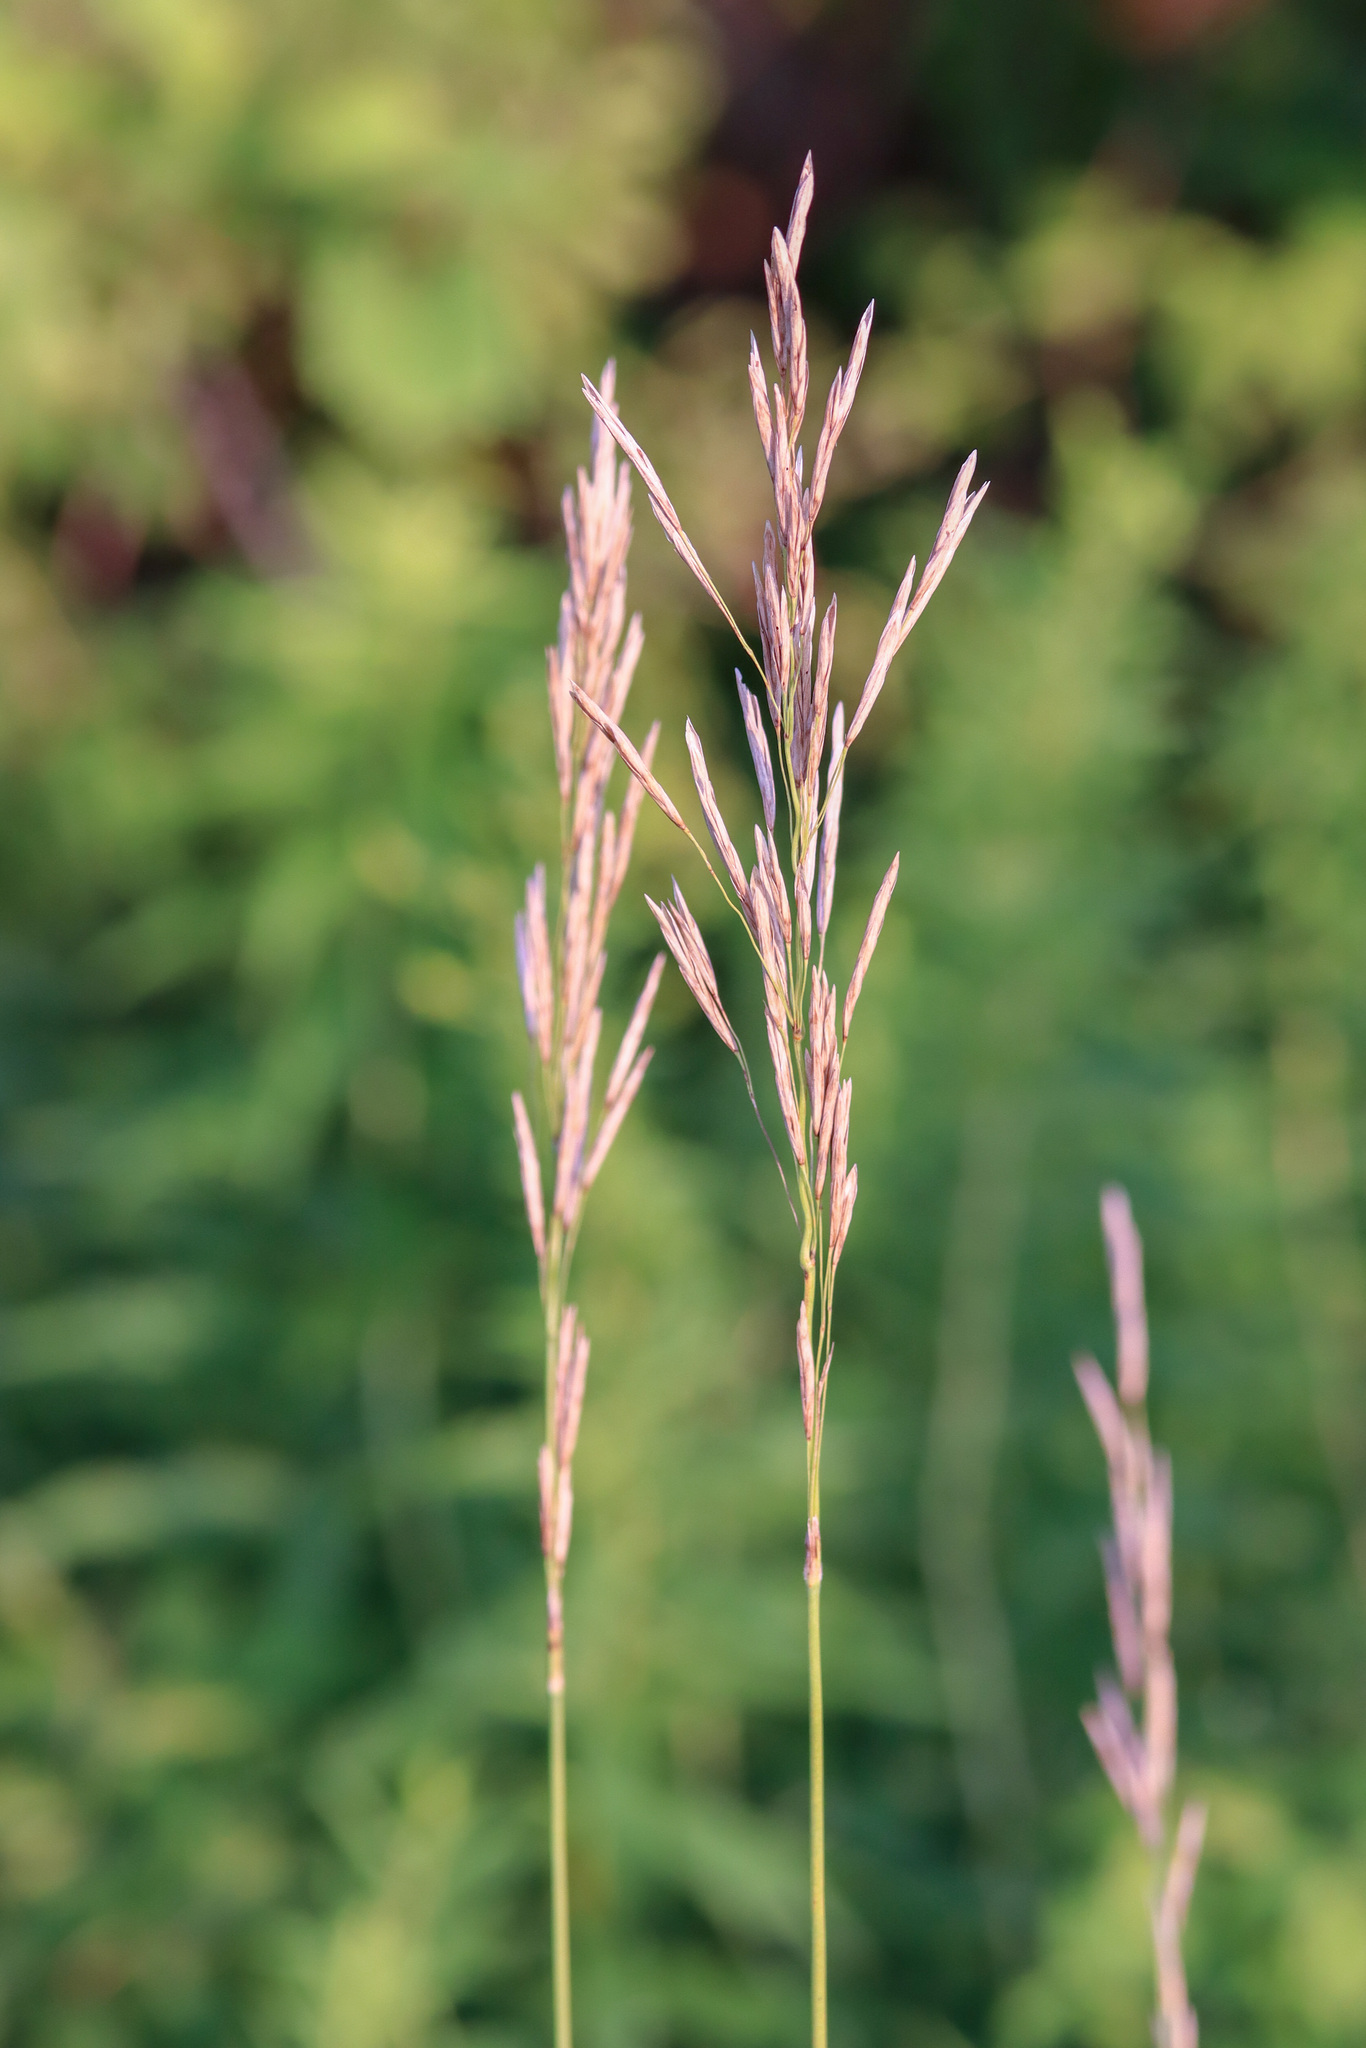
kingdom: Plantae
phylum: Tracheophyta
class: Liliopsida
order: Poales
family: Poaceae
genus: Bromus
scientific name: Bromus inermis
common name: Smooth brome
